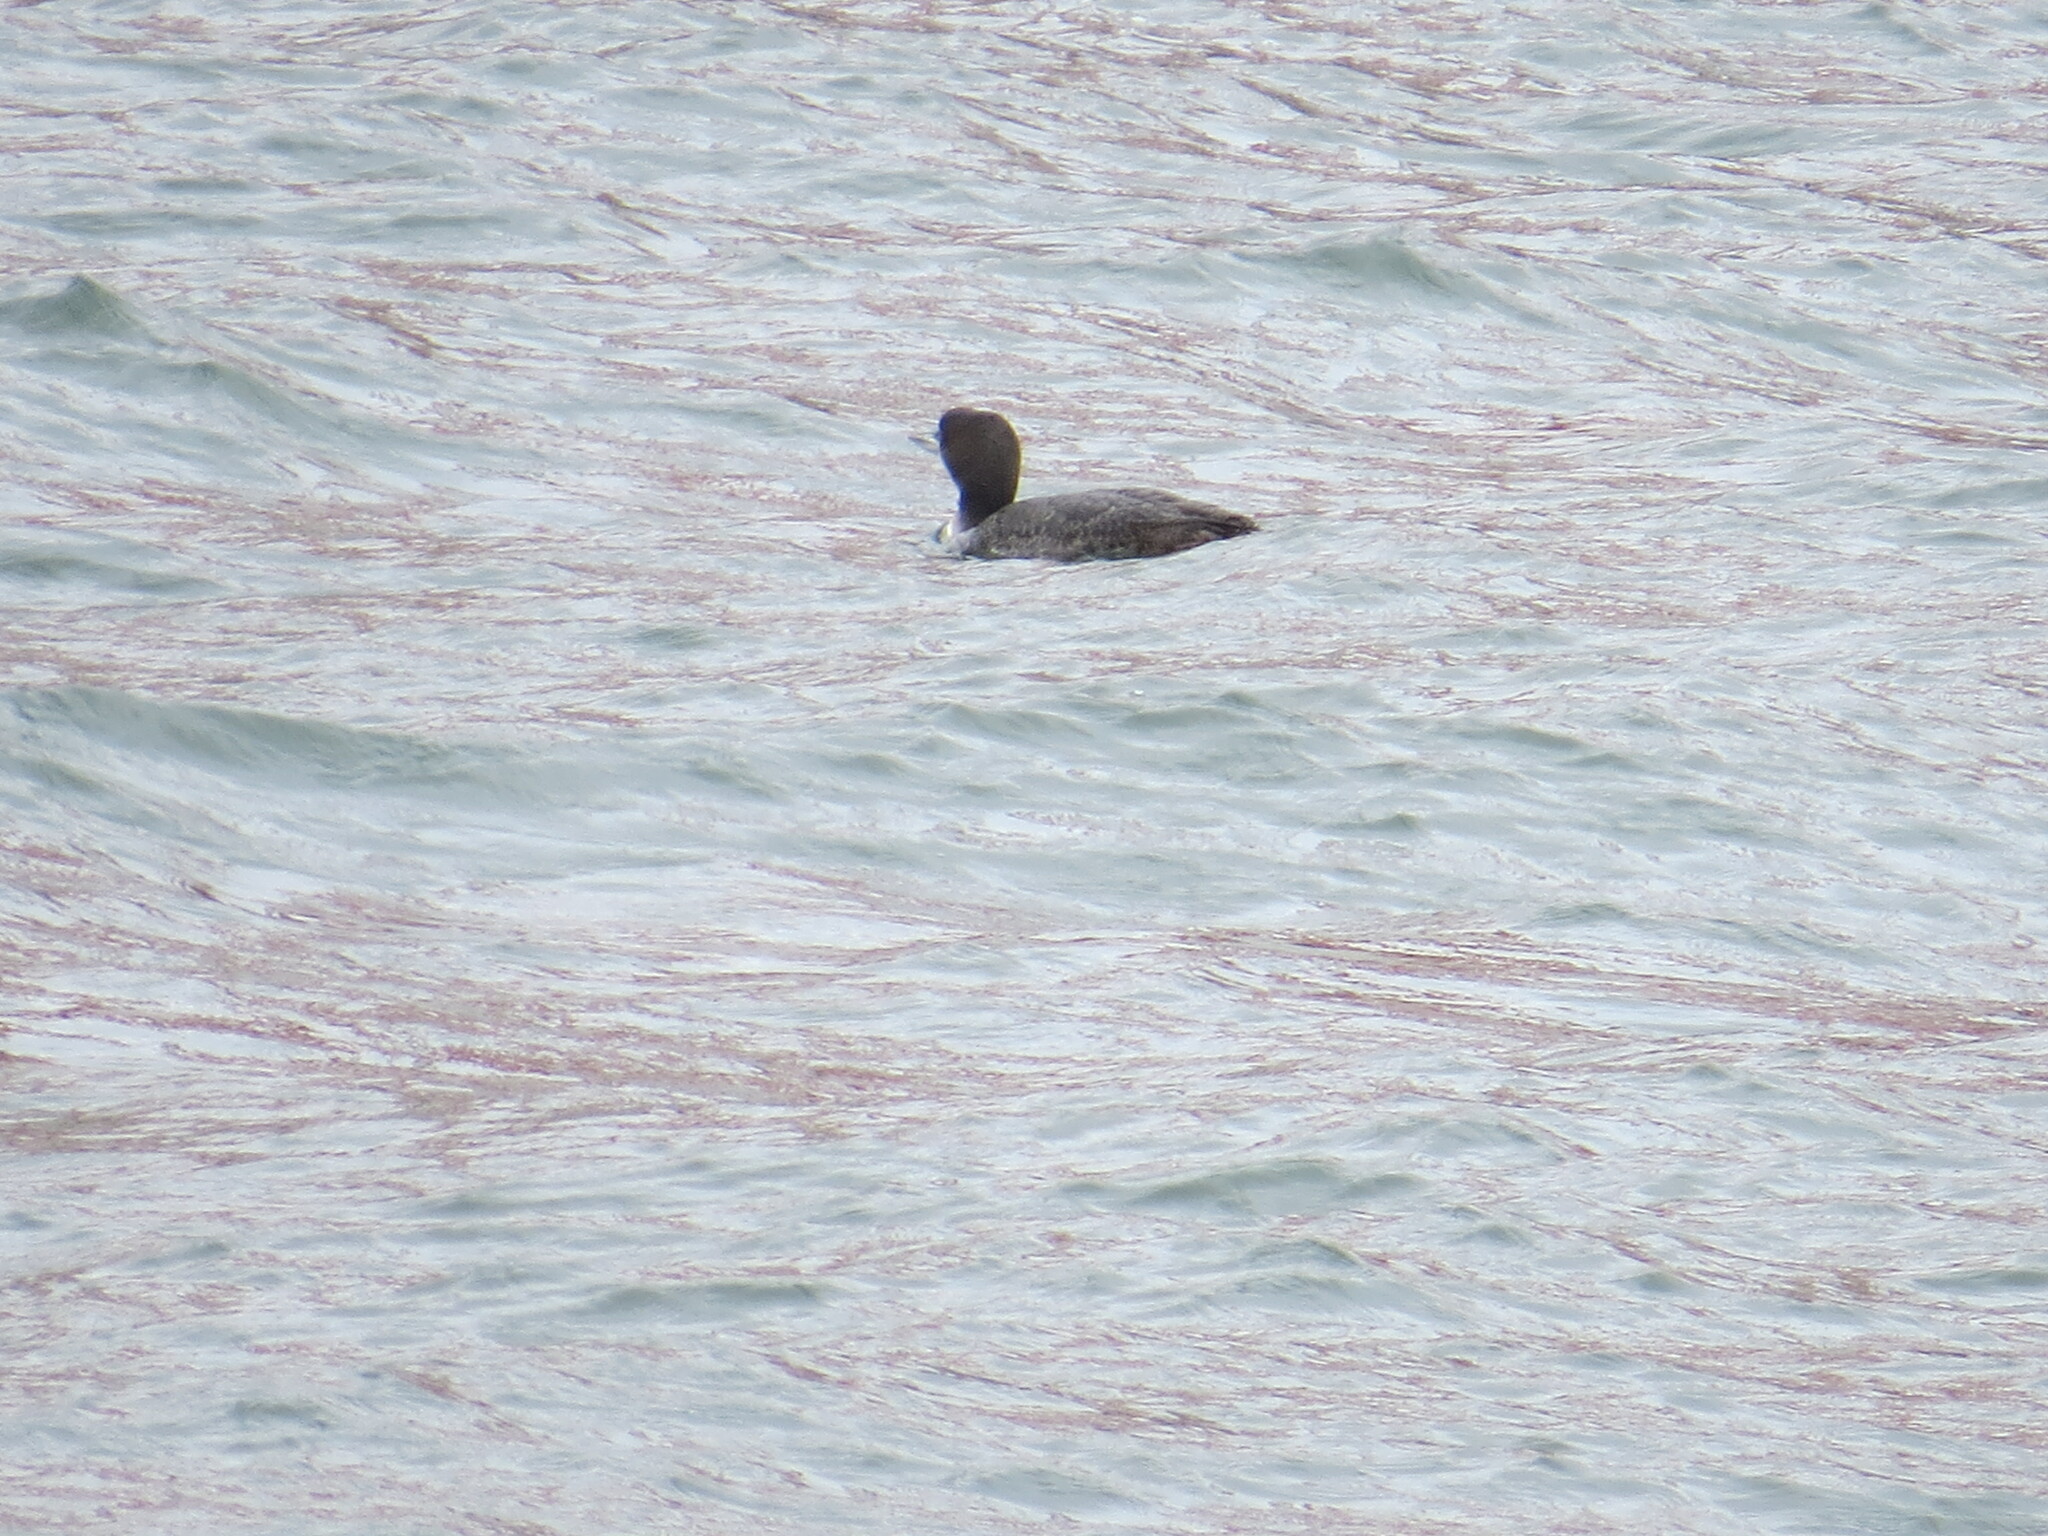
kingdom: Animalia
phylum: Chordata
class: Aves
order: Gaviiformes
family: Gaviidae
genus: Gavia
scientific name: Gavia immer
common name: Common loon
